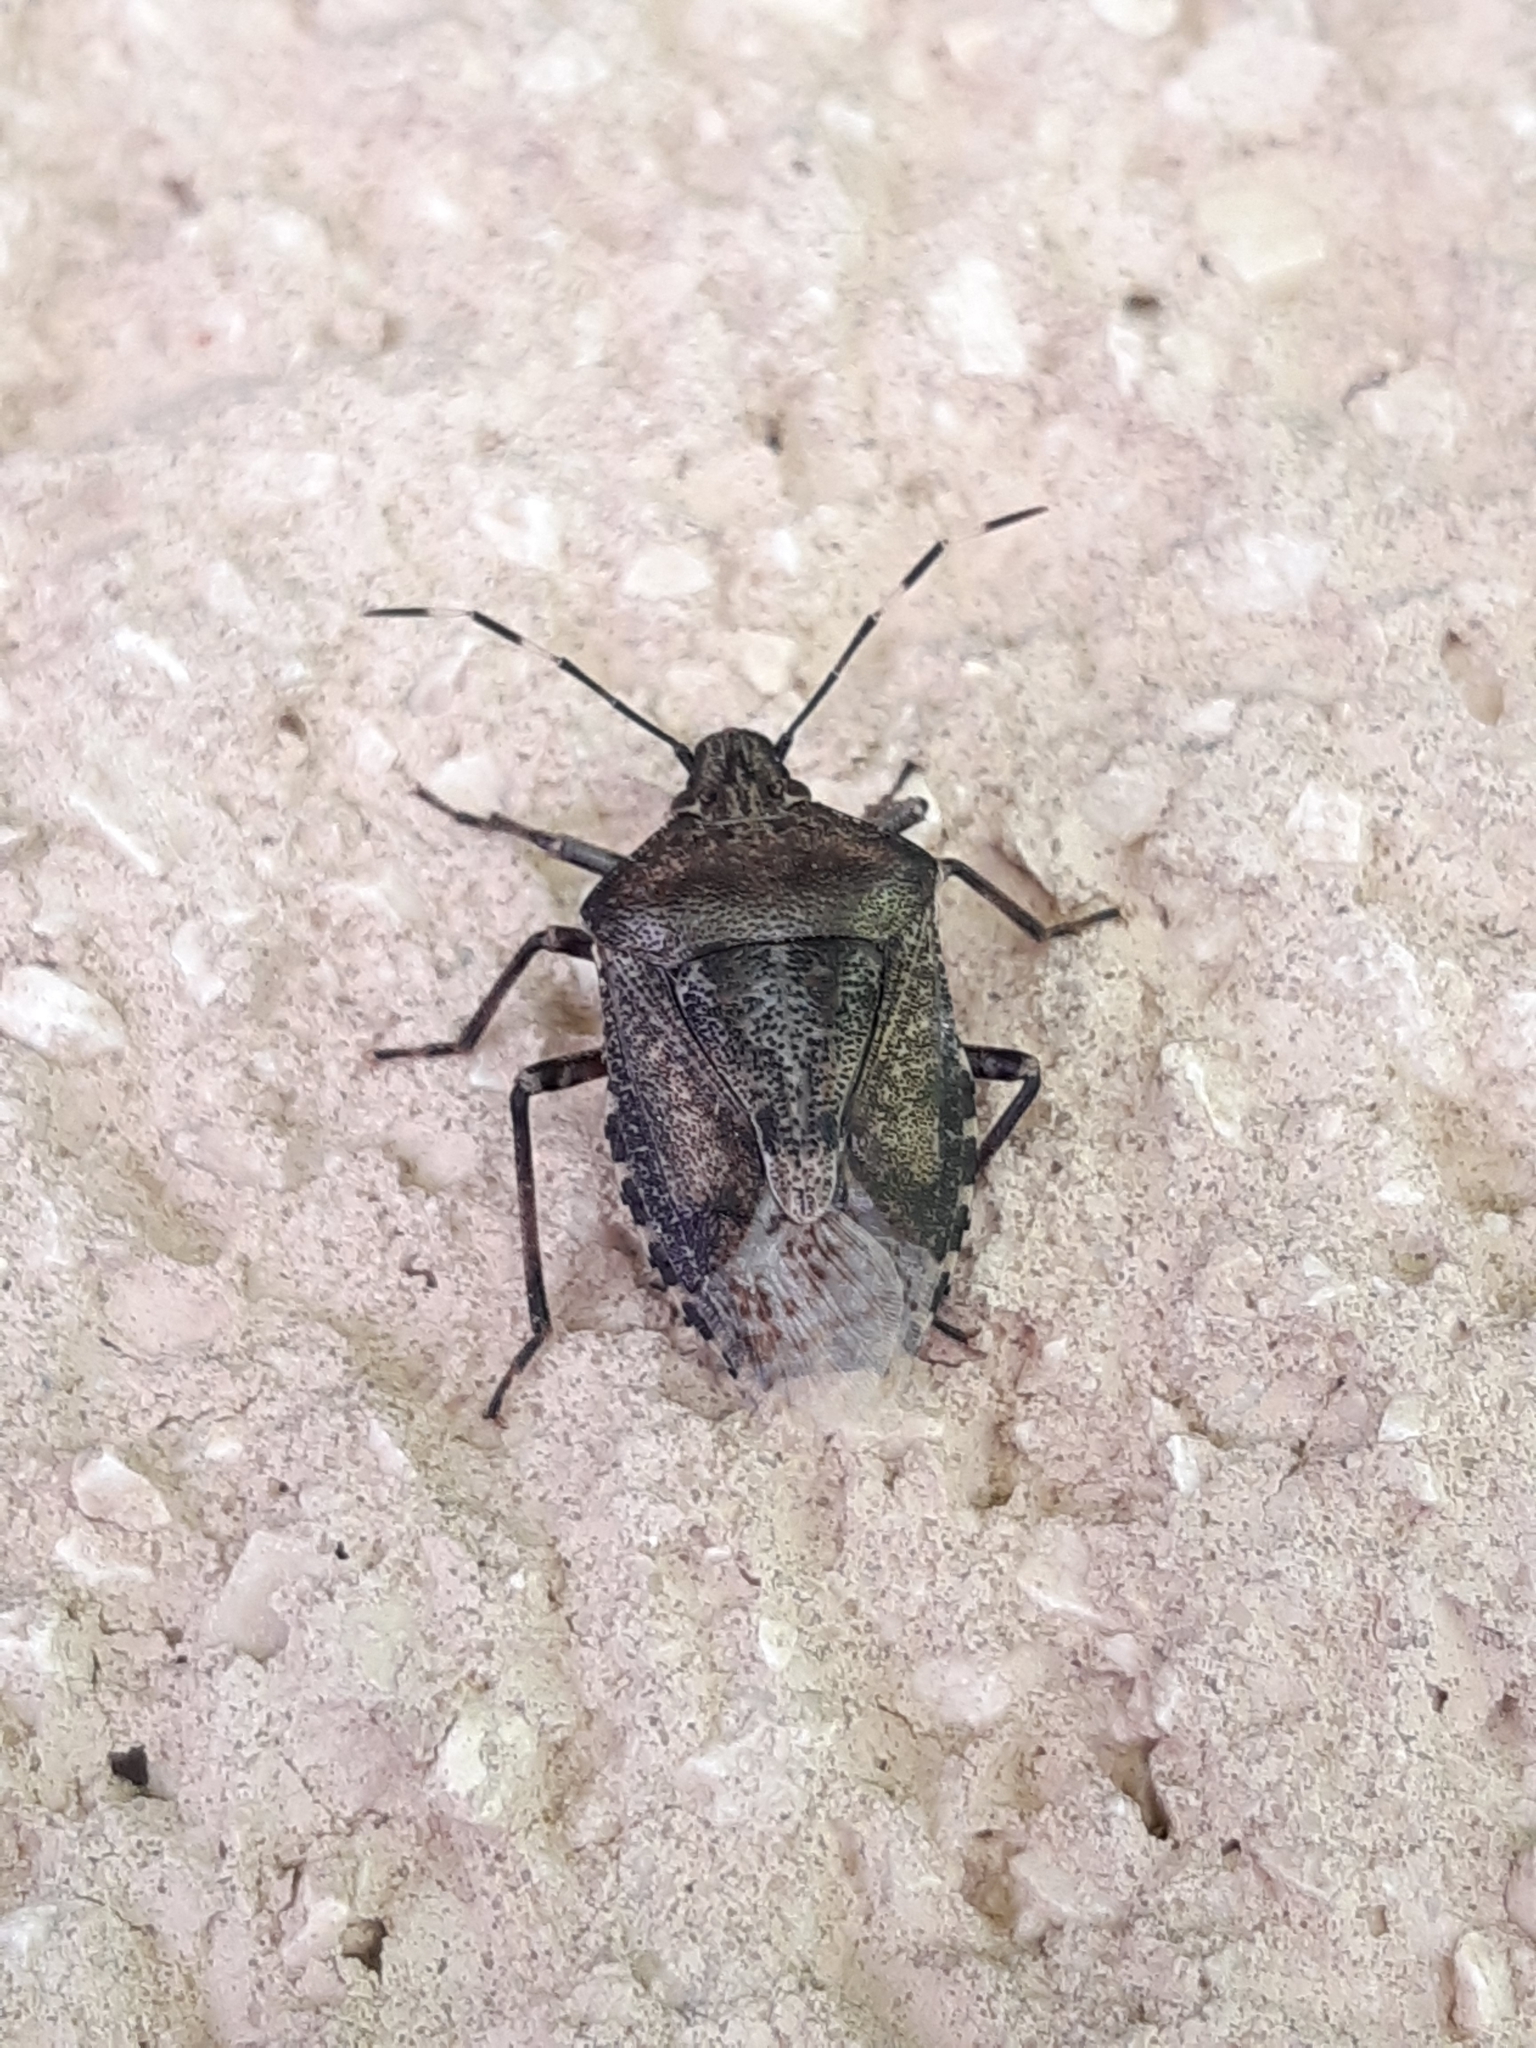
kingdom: Animalia
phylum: Arthropoda
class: Insecta
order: Hemiptera
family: Pentatomidae
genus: Rhaphigaster
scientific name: Rhaphigaster nebulosa
